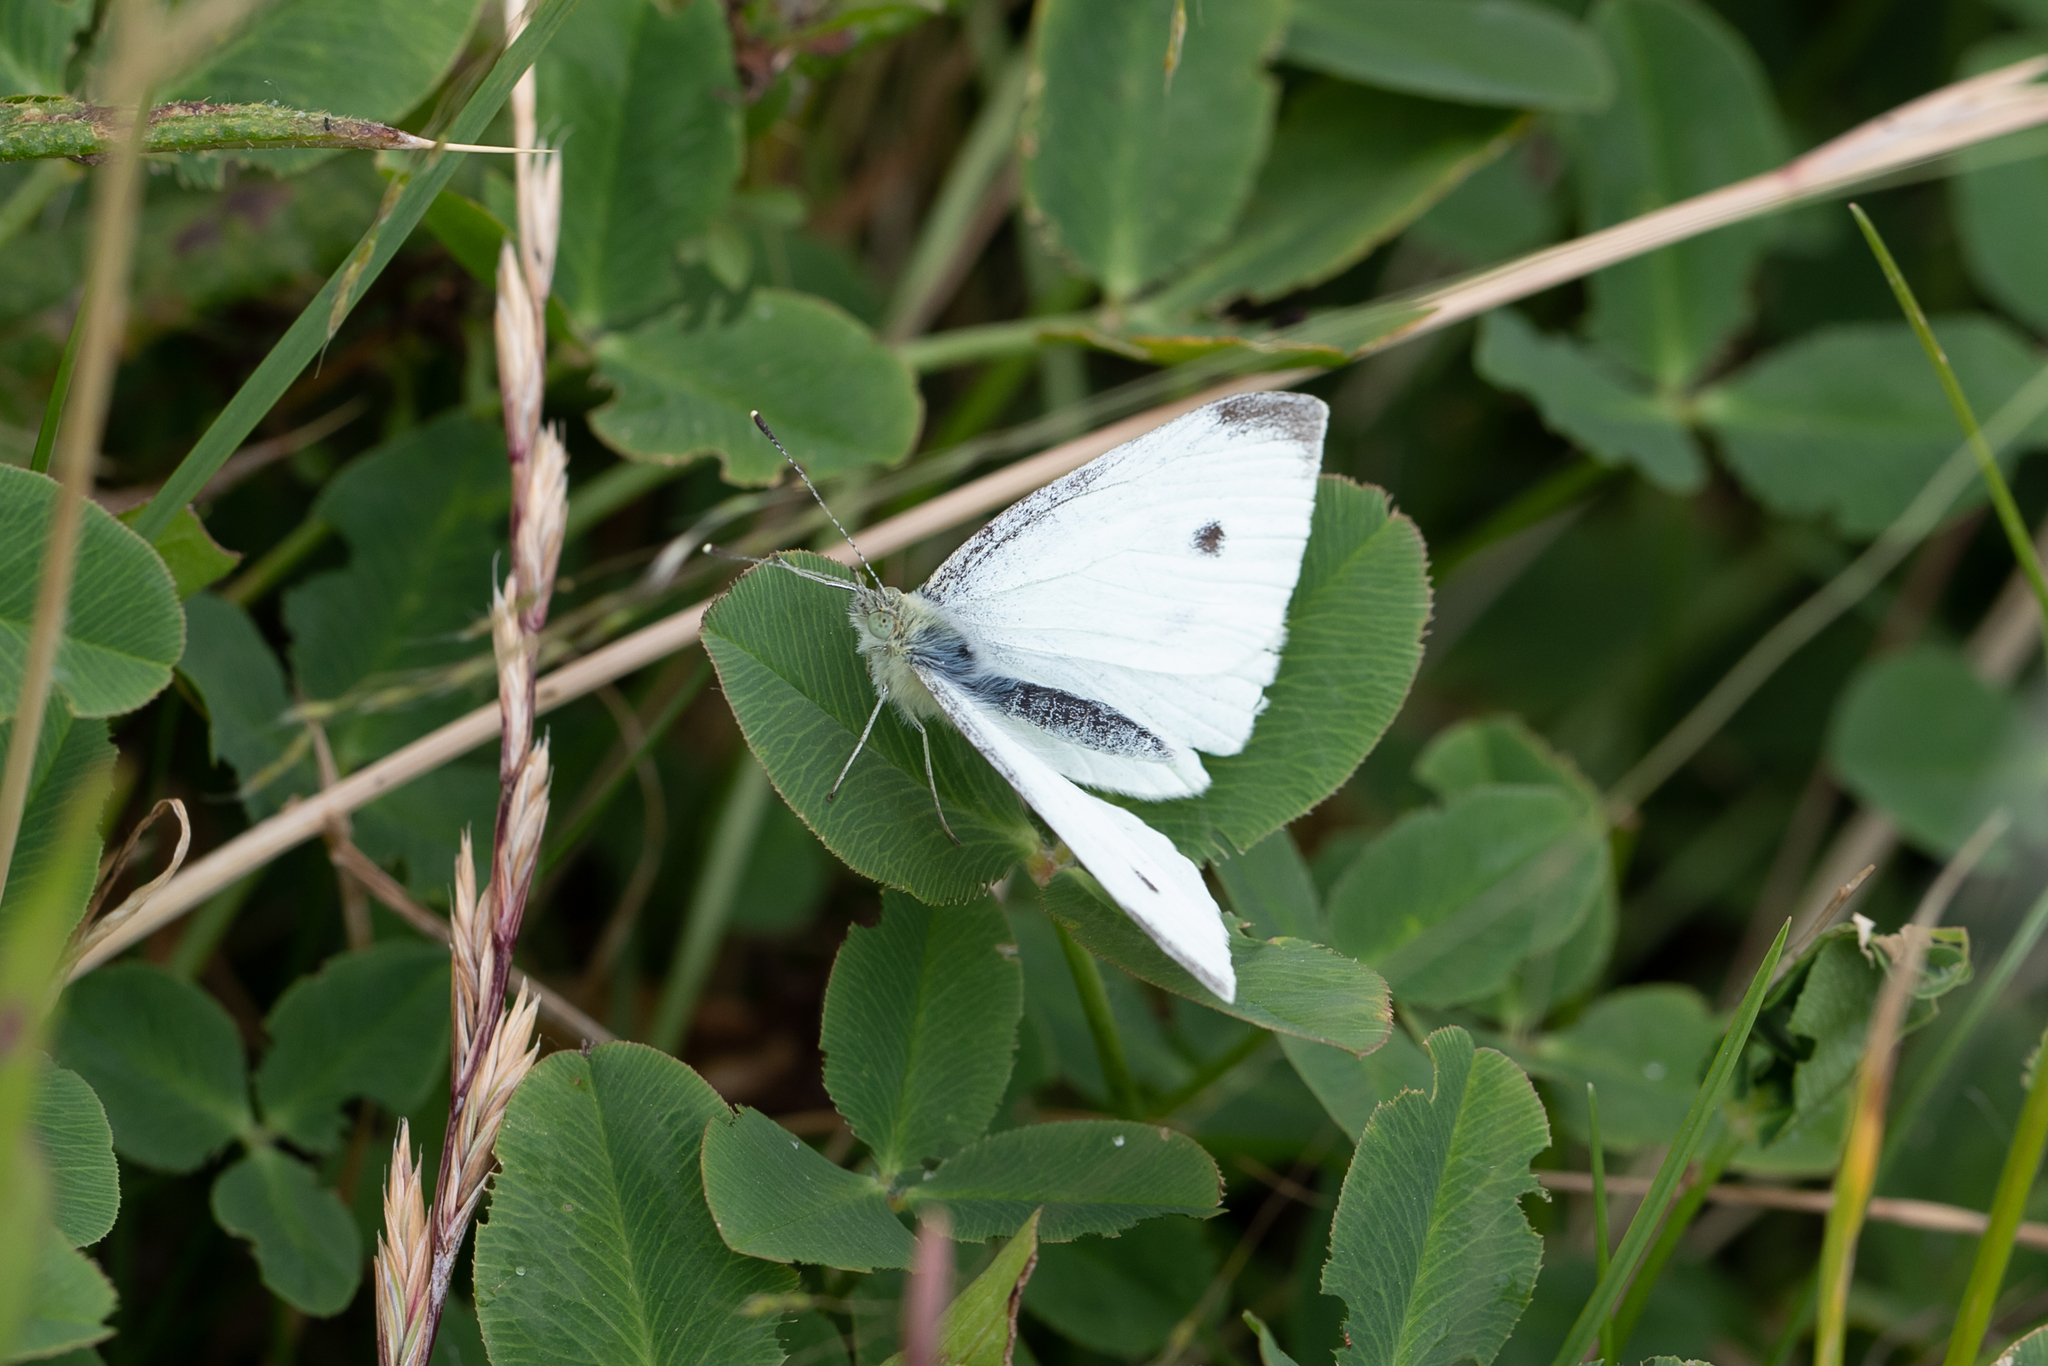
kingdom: Animalia
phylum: Arthropoda
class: Insecta
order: Lepidoptera
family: Pieridae
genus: Pieris
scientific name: Pieris rapae
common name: Small white
